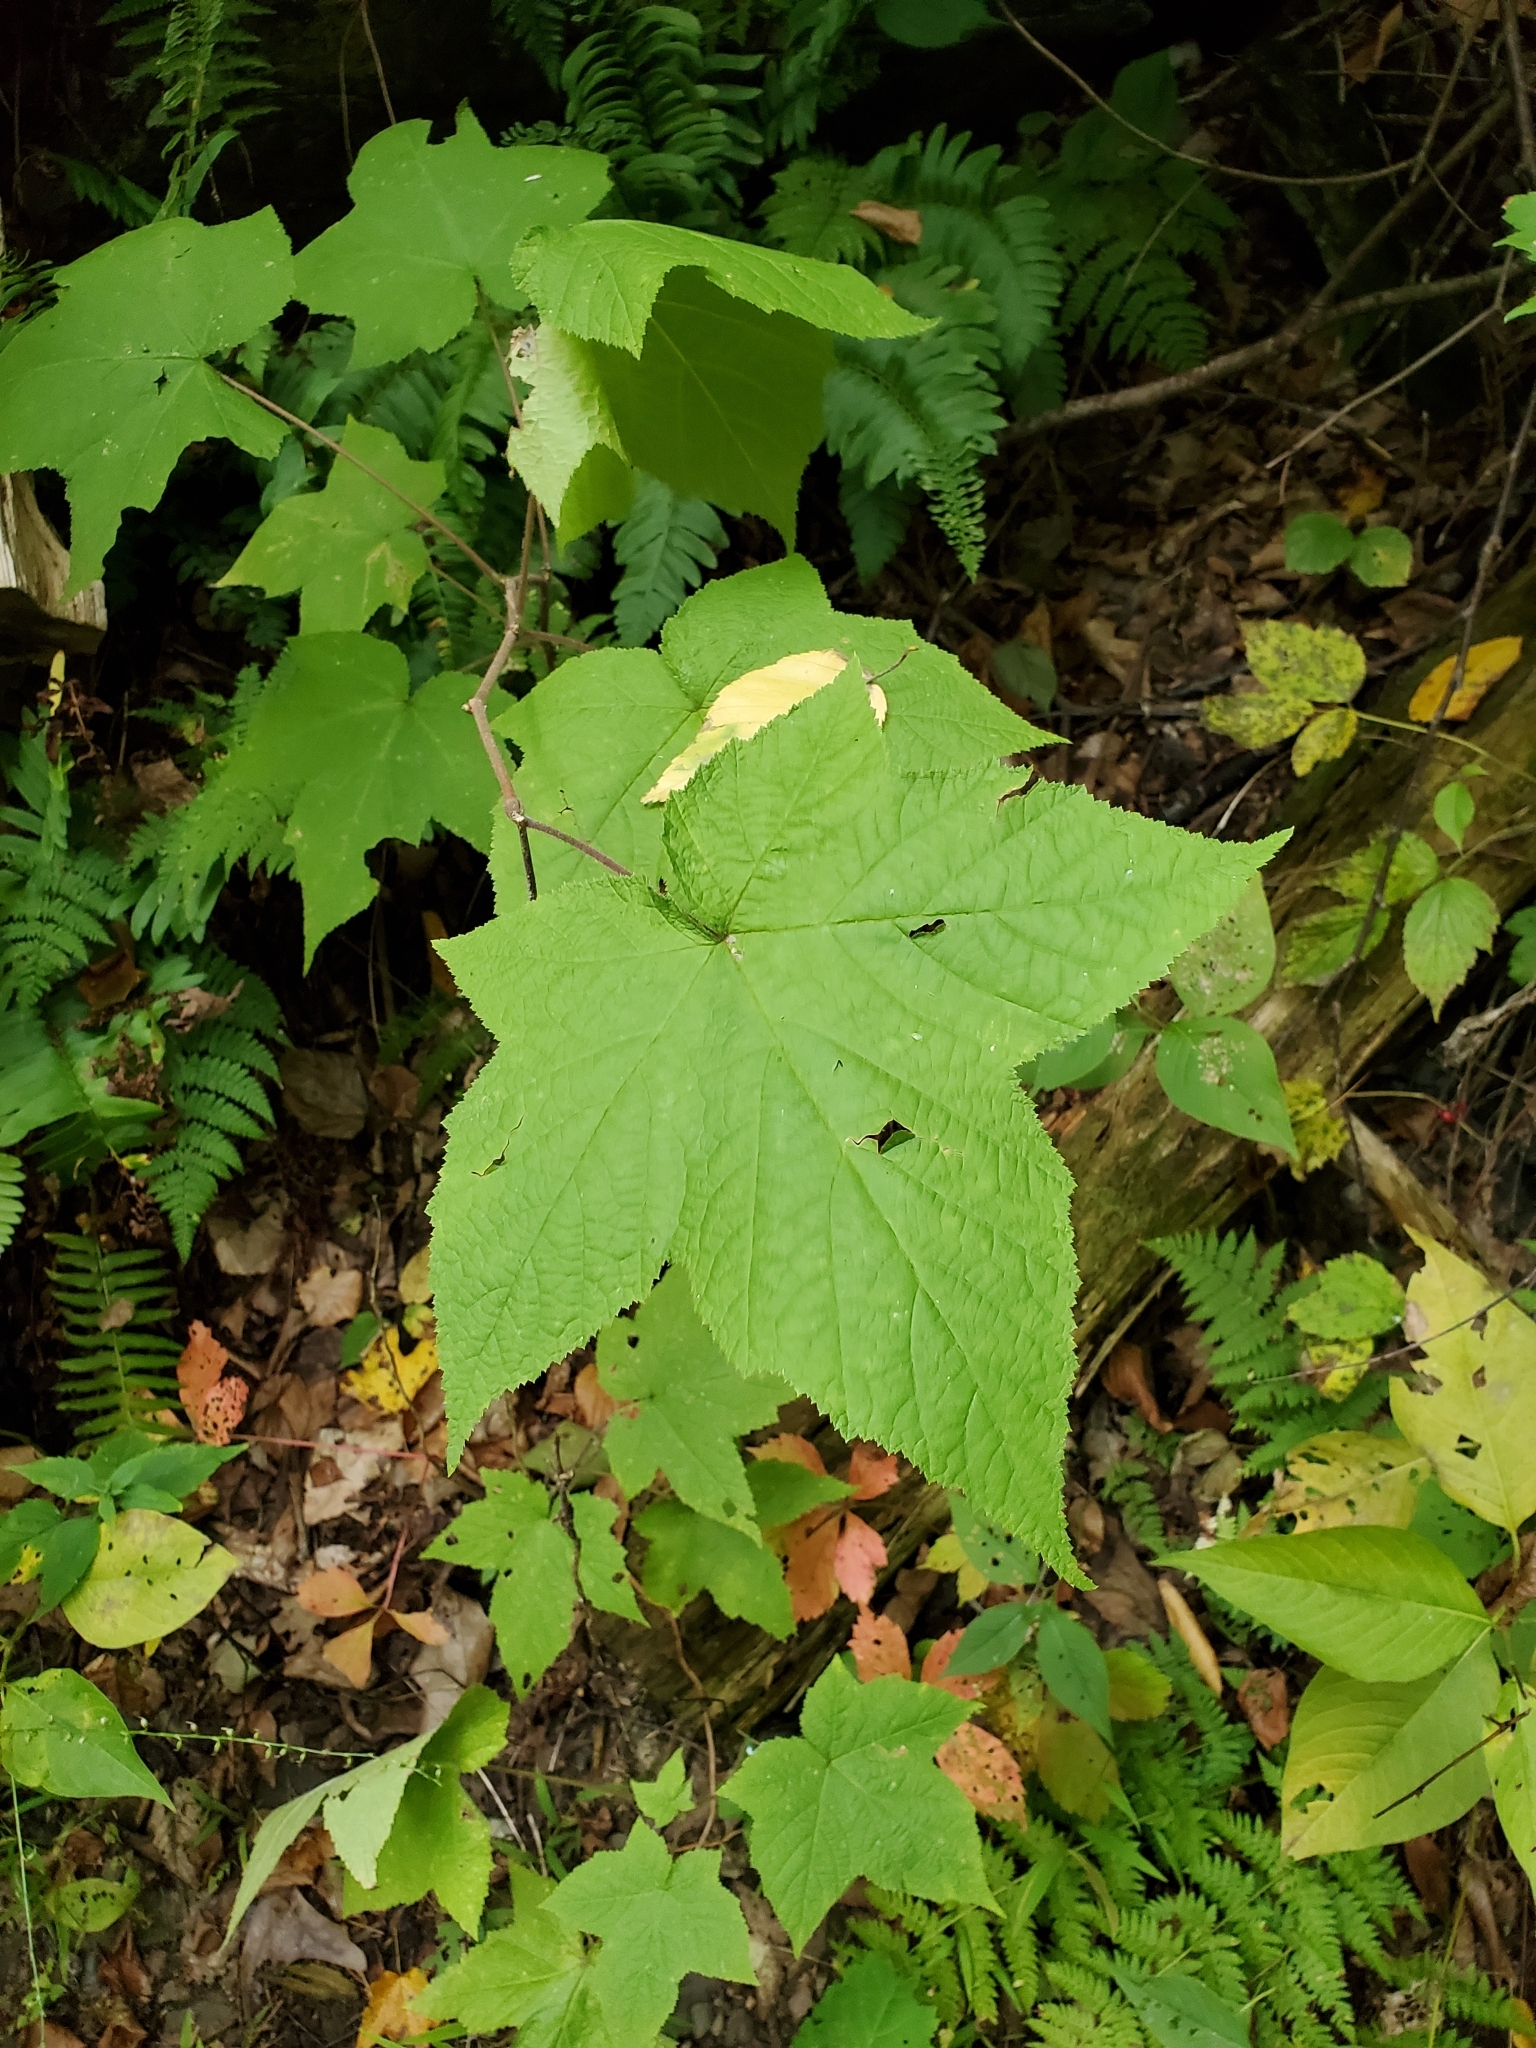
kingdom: Plantae
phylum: Tracheophyta
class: Magnoliopsida
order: Rosales
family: Rosaceae
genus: Rubus
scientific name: Rubus odoratus
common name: Purple-flowered raspberry
